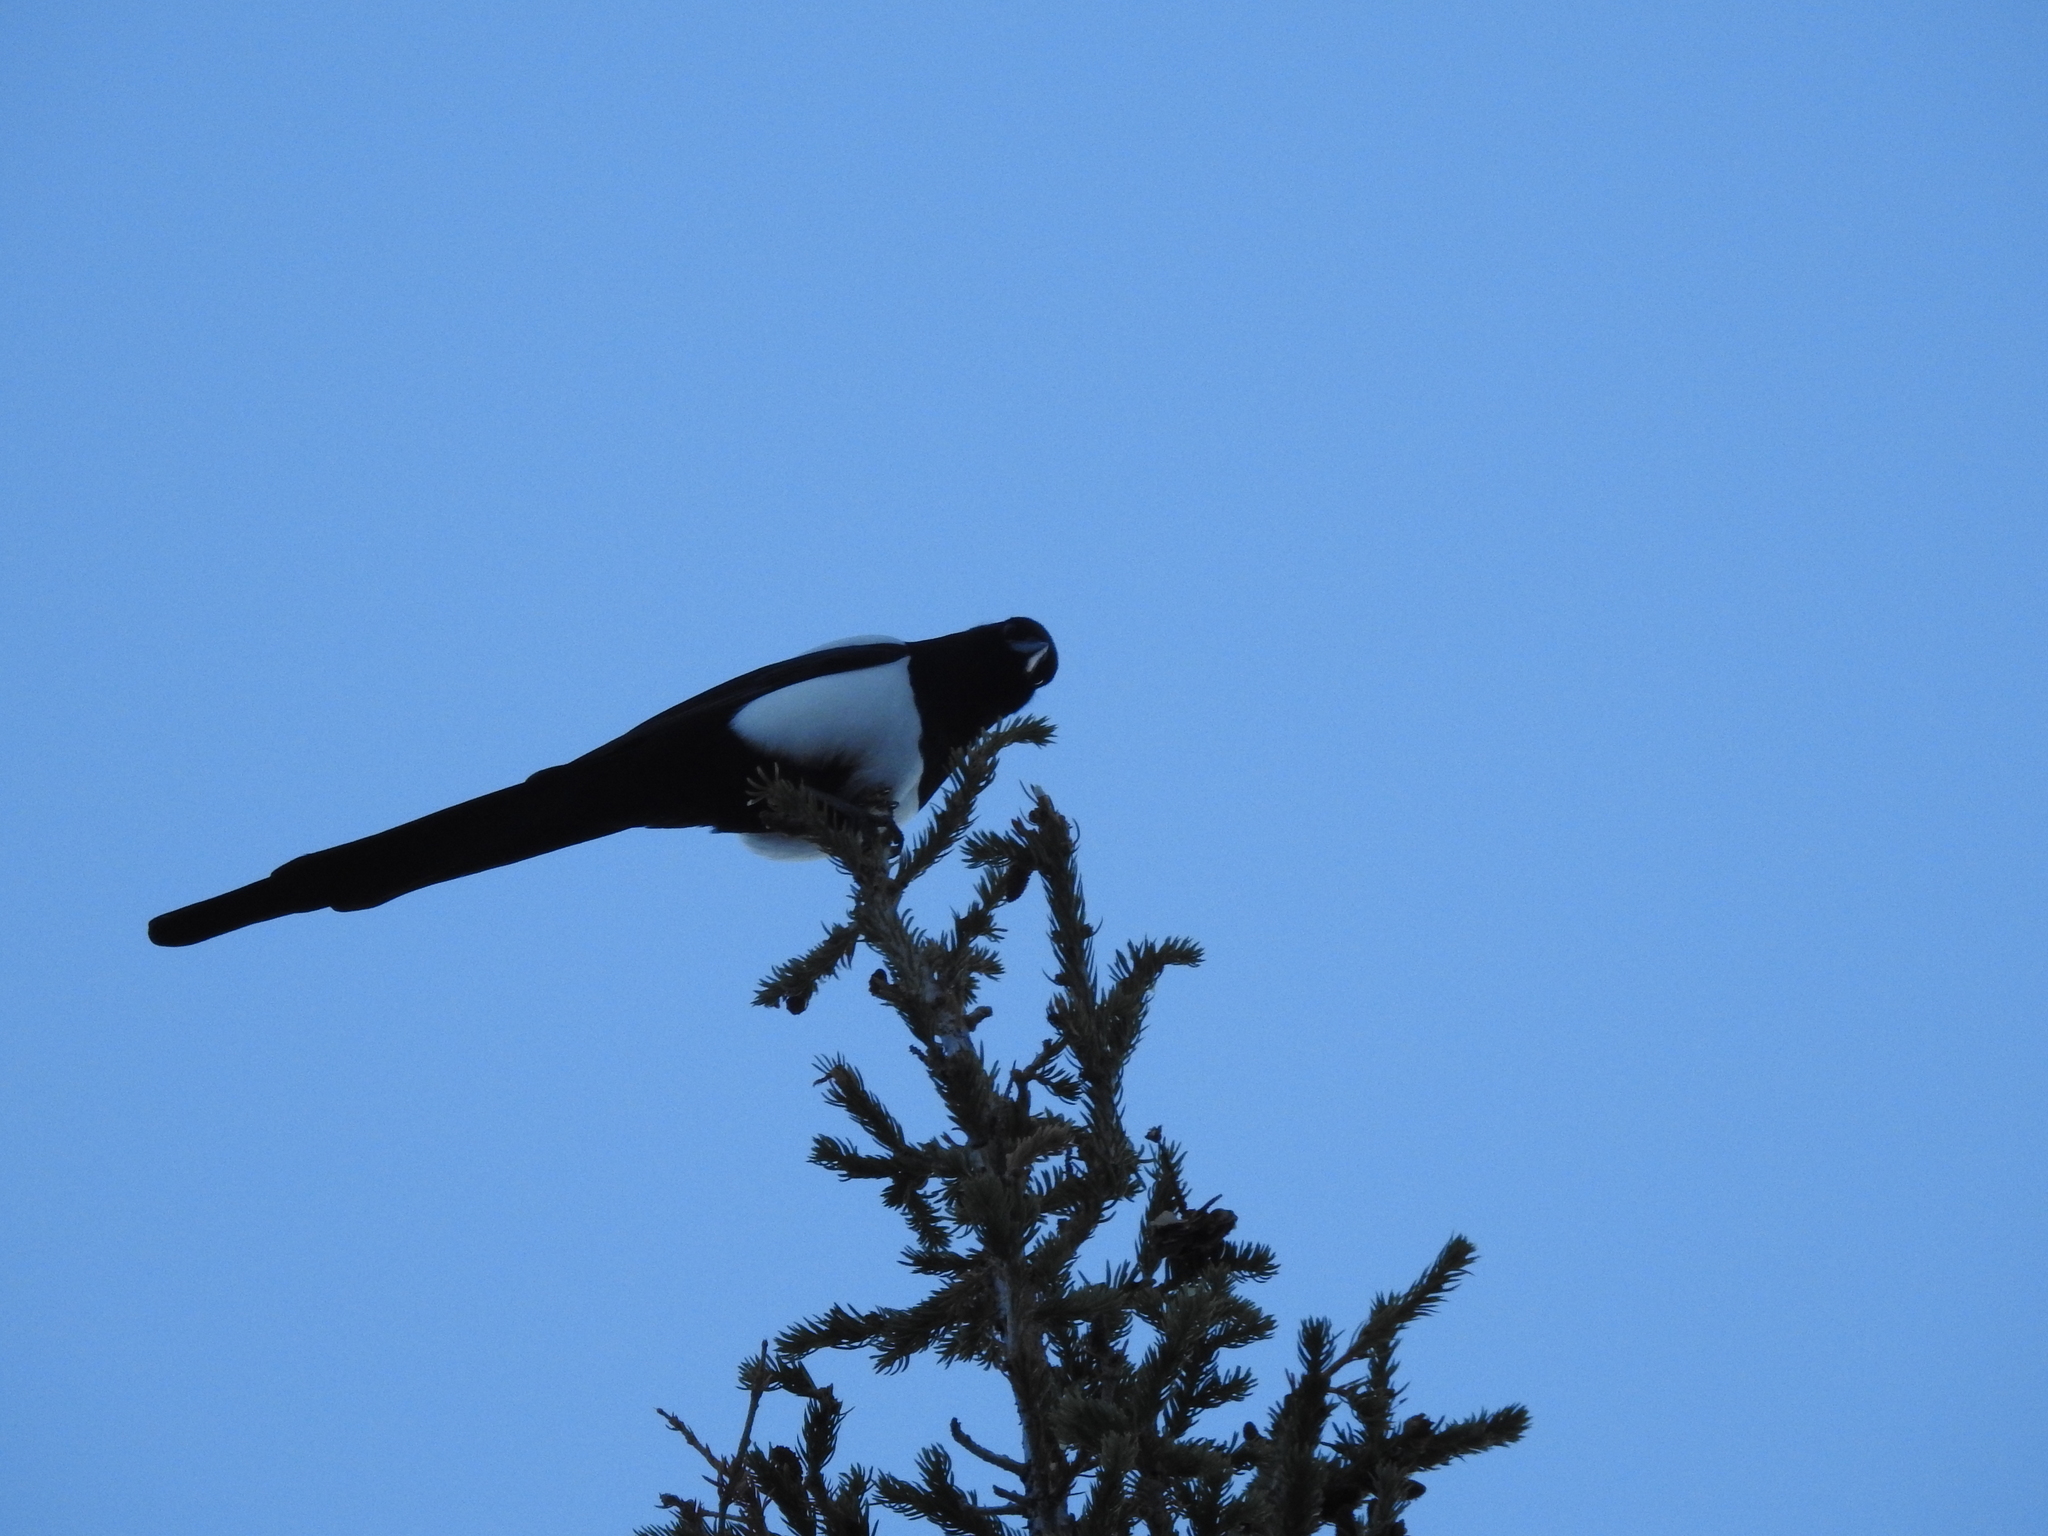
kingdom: Animalia
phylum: Chordata
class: Aves
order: Passeriformes
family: Corvidae
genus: Pica
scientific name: Pica hudsonia
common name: Black-billed magpie
